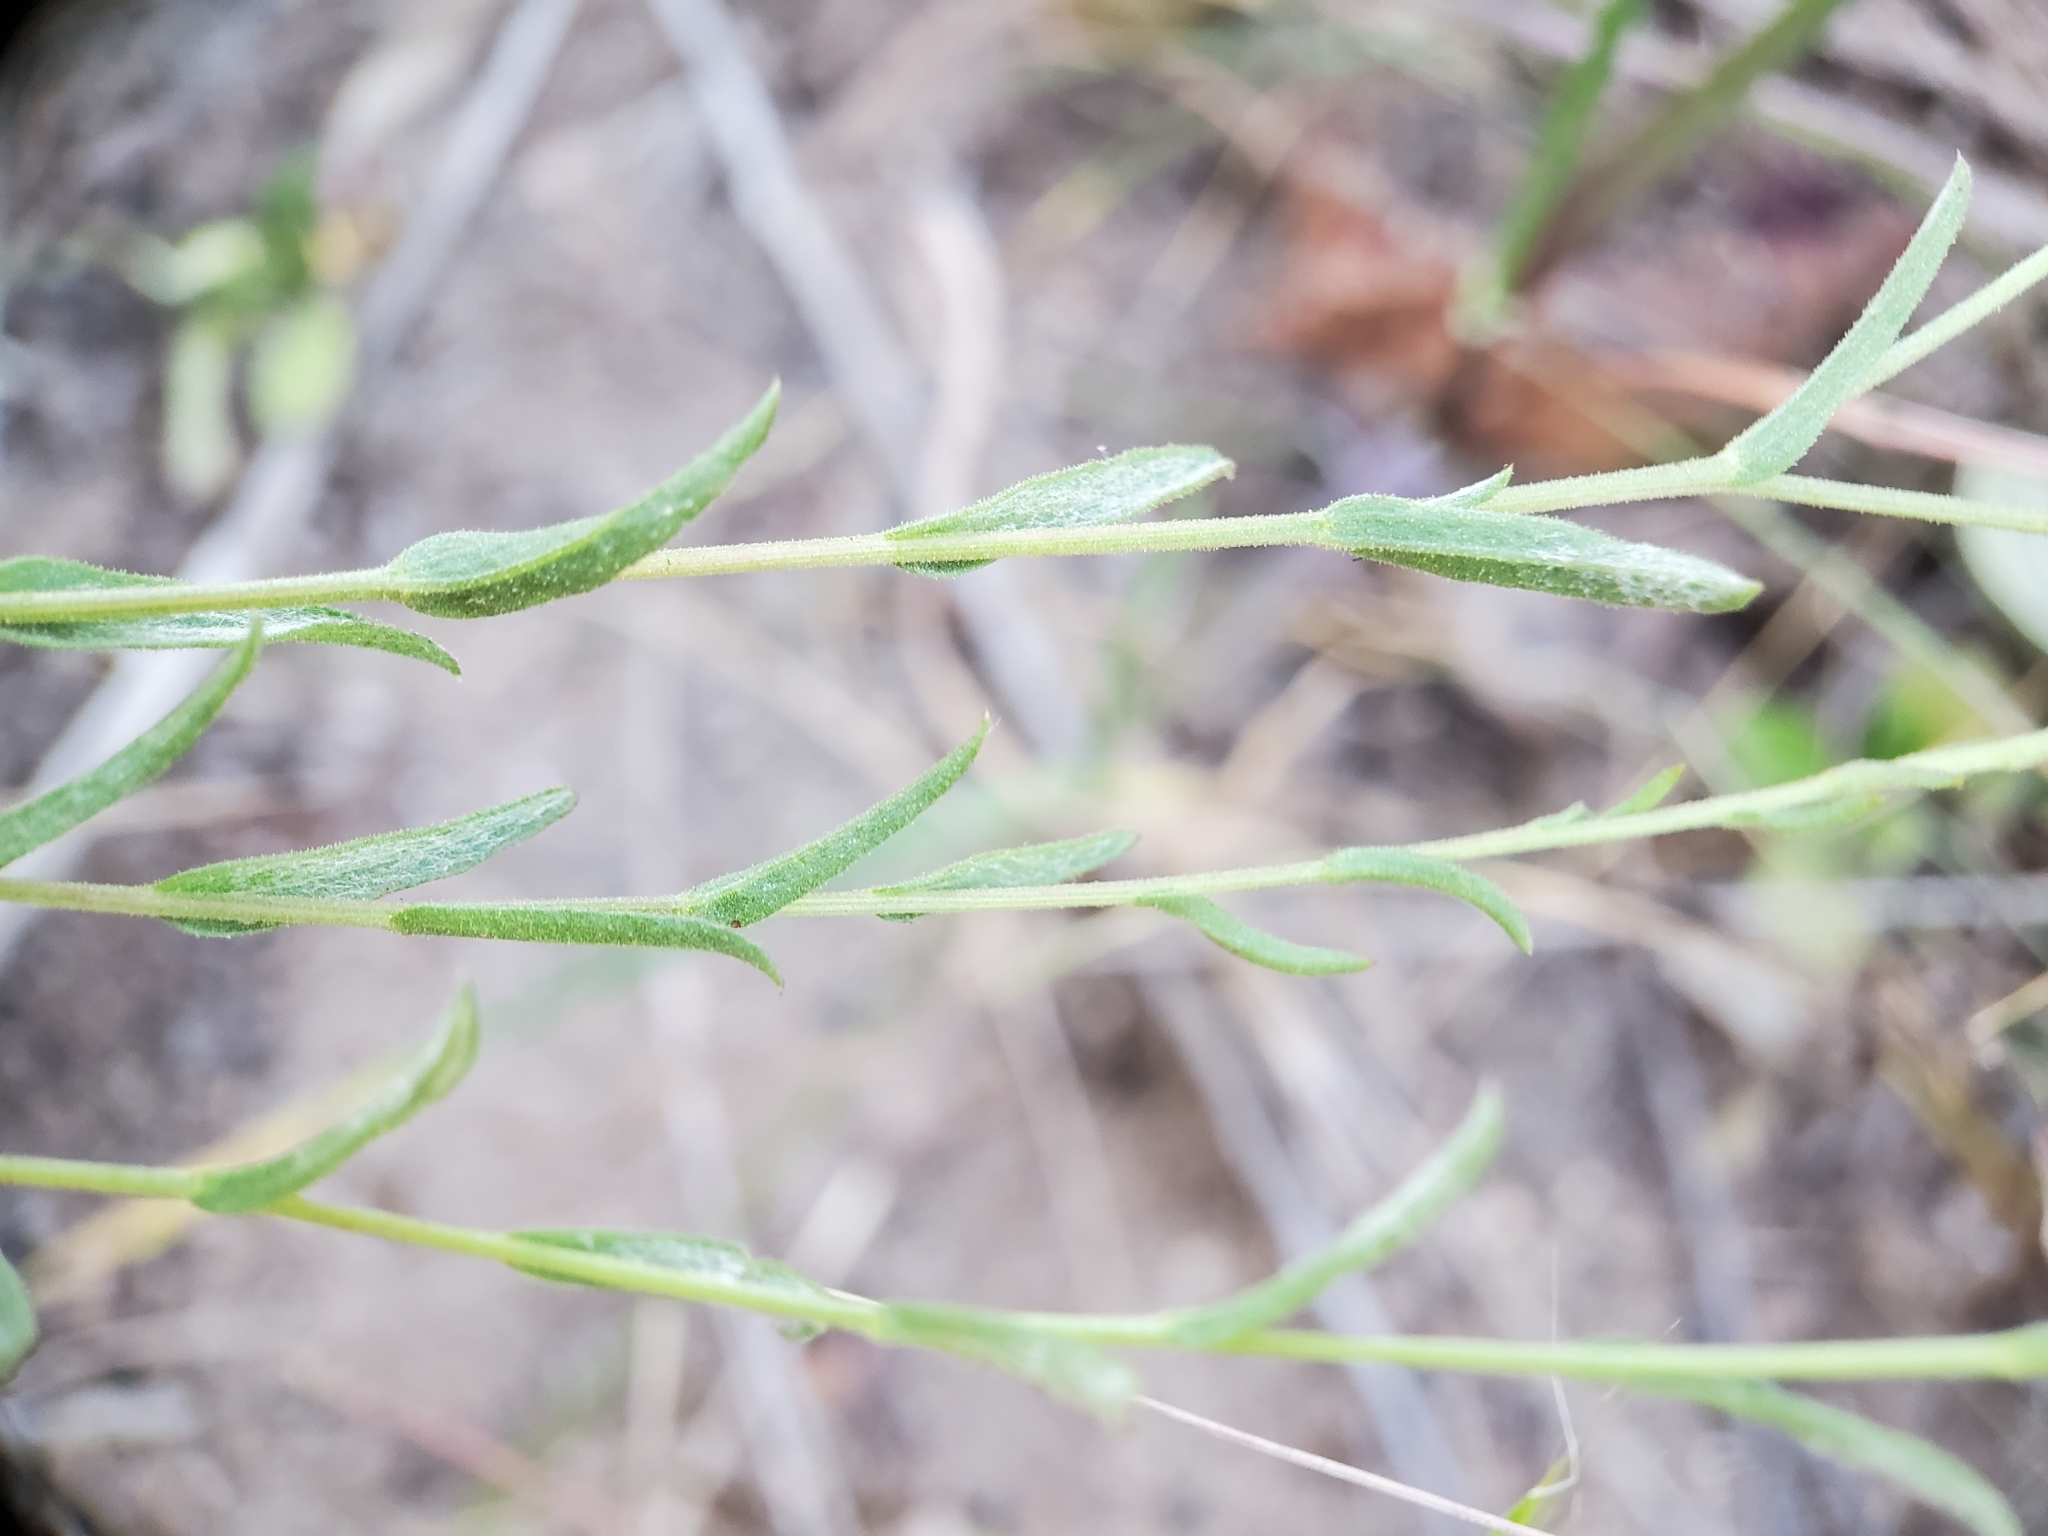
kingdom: Plantae
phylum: Tracheophyta
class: Magnoliopsida
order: Asterales
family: Asteraceae
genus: Corethrogyne
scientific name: Corethrogyne filaginifolia
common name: Sand-aster
